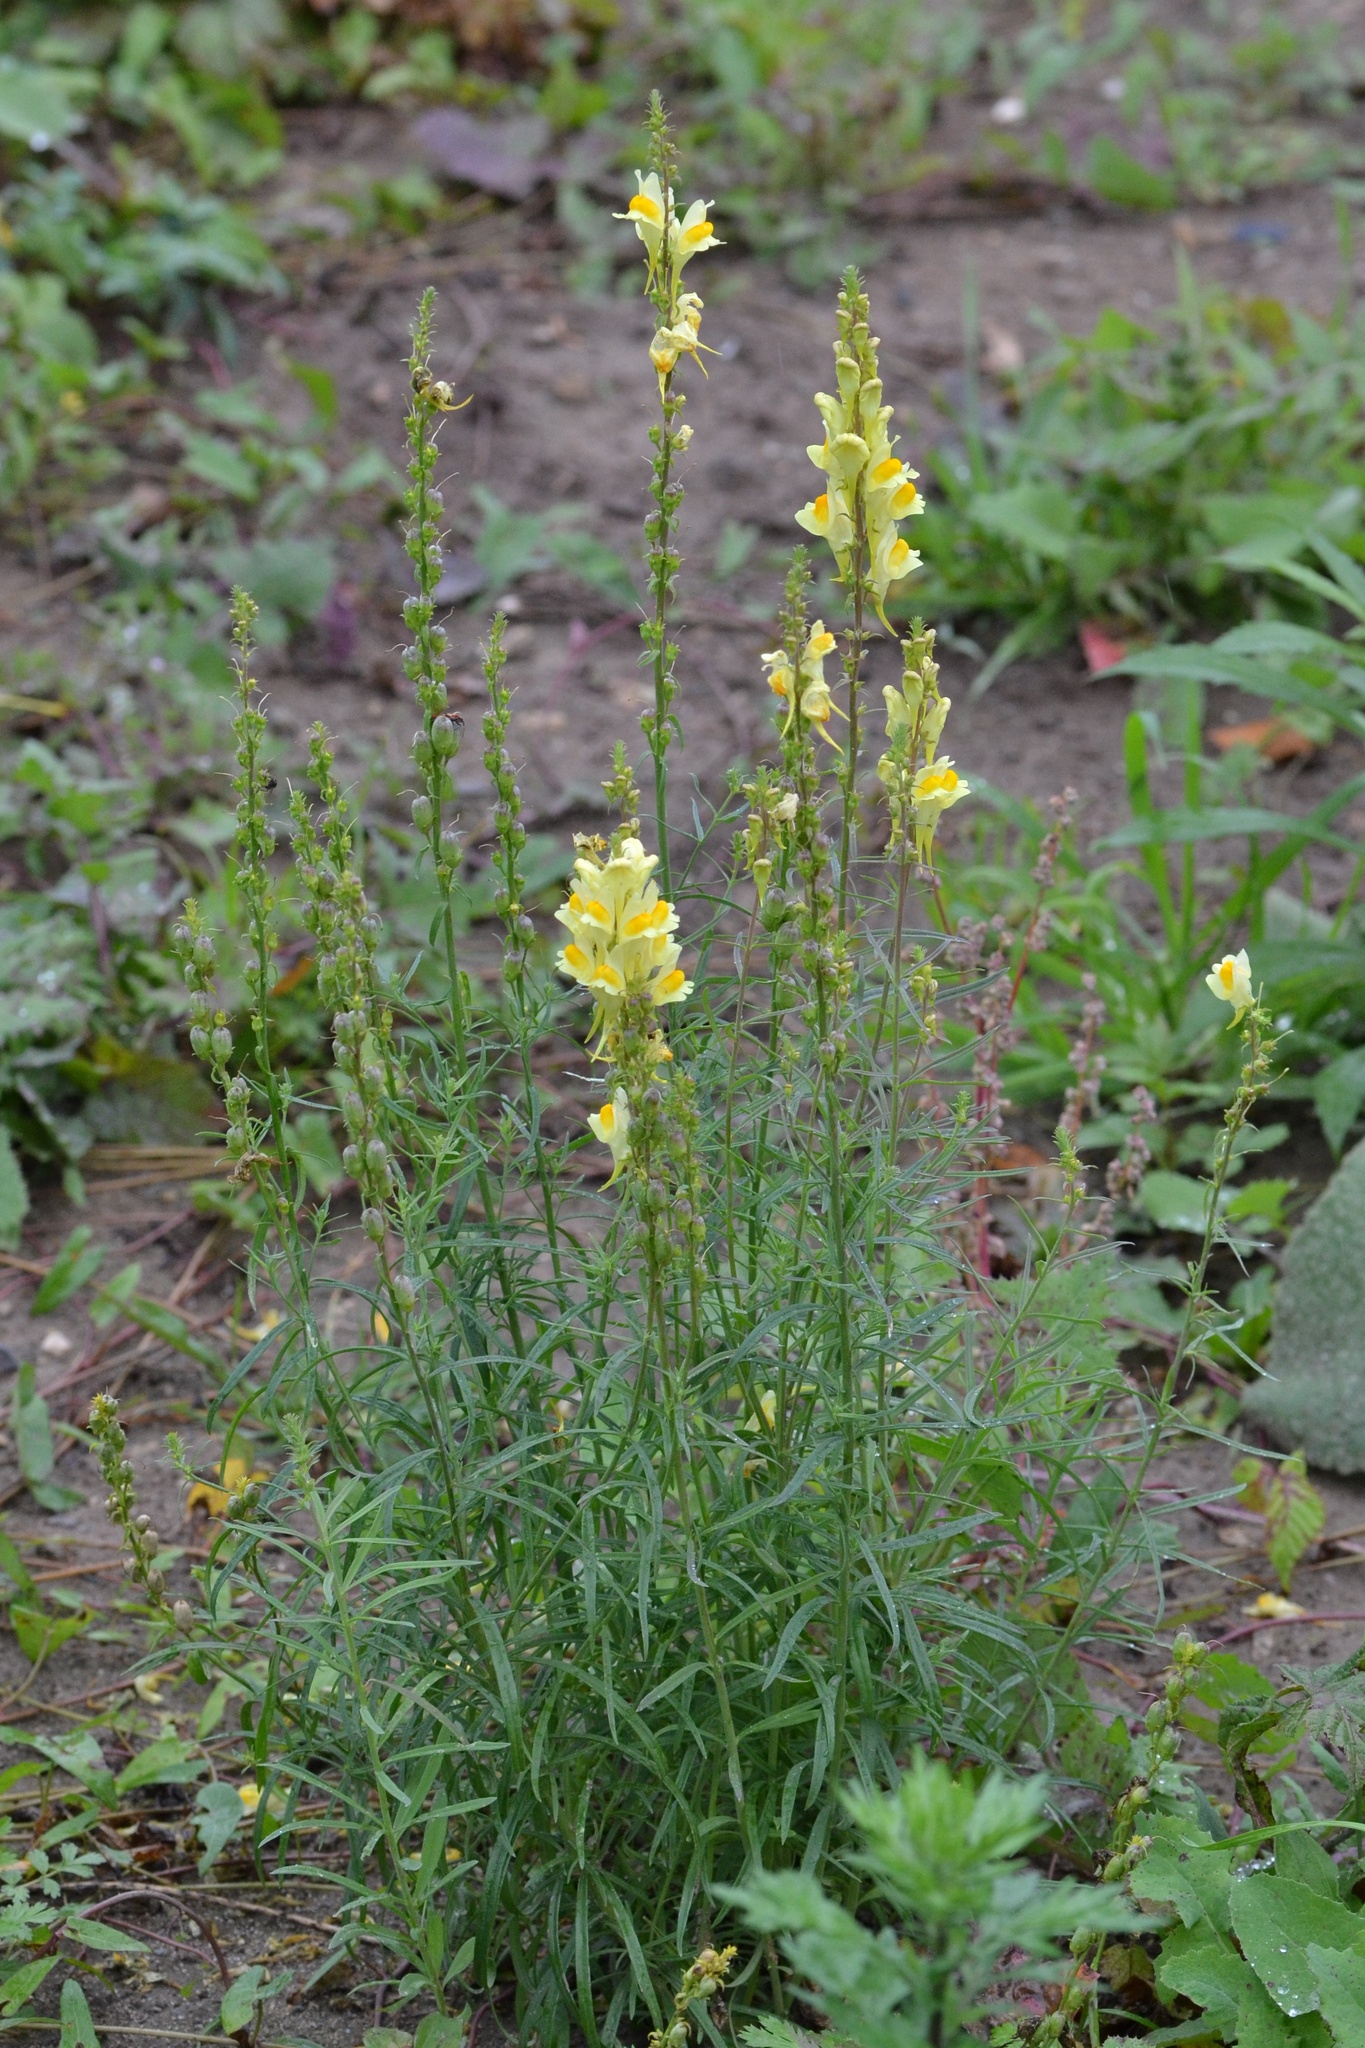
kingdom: Plantae
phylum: Tracheophyta
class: Magnoliopsida
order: Lamiales
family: Plantaginaceae
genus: Linaria
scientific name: Linaria vulgaris
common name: Butter and eggs
